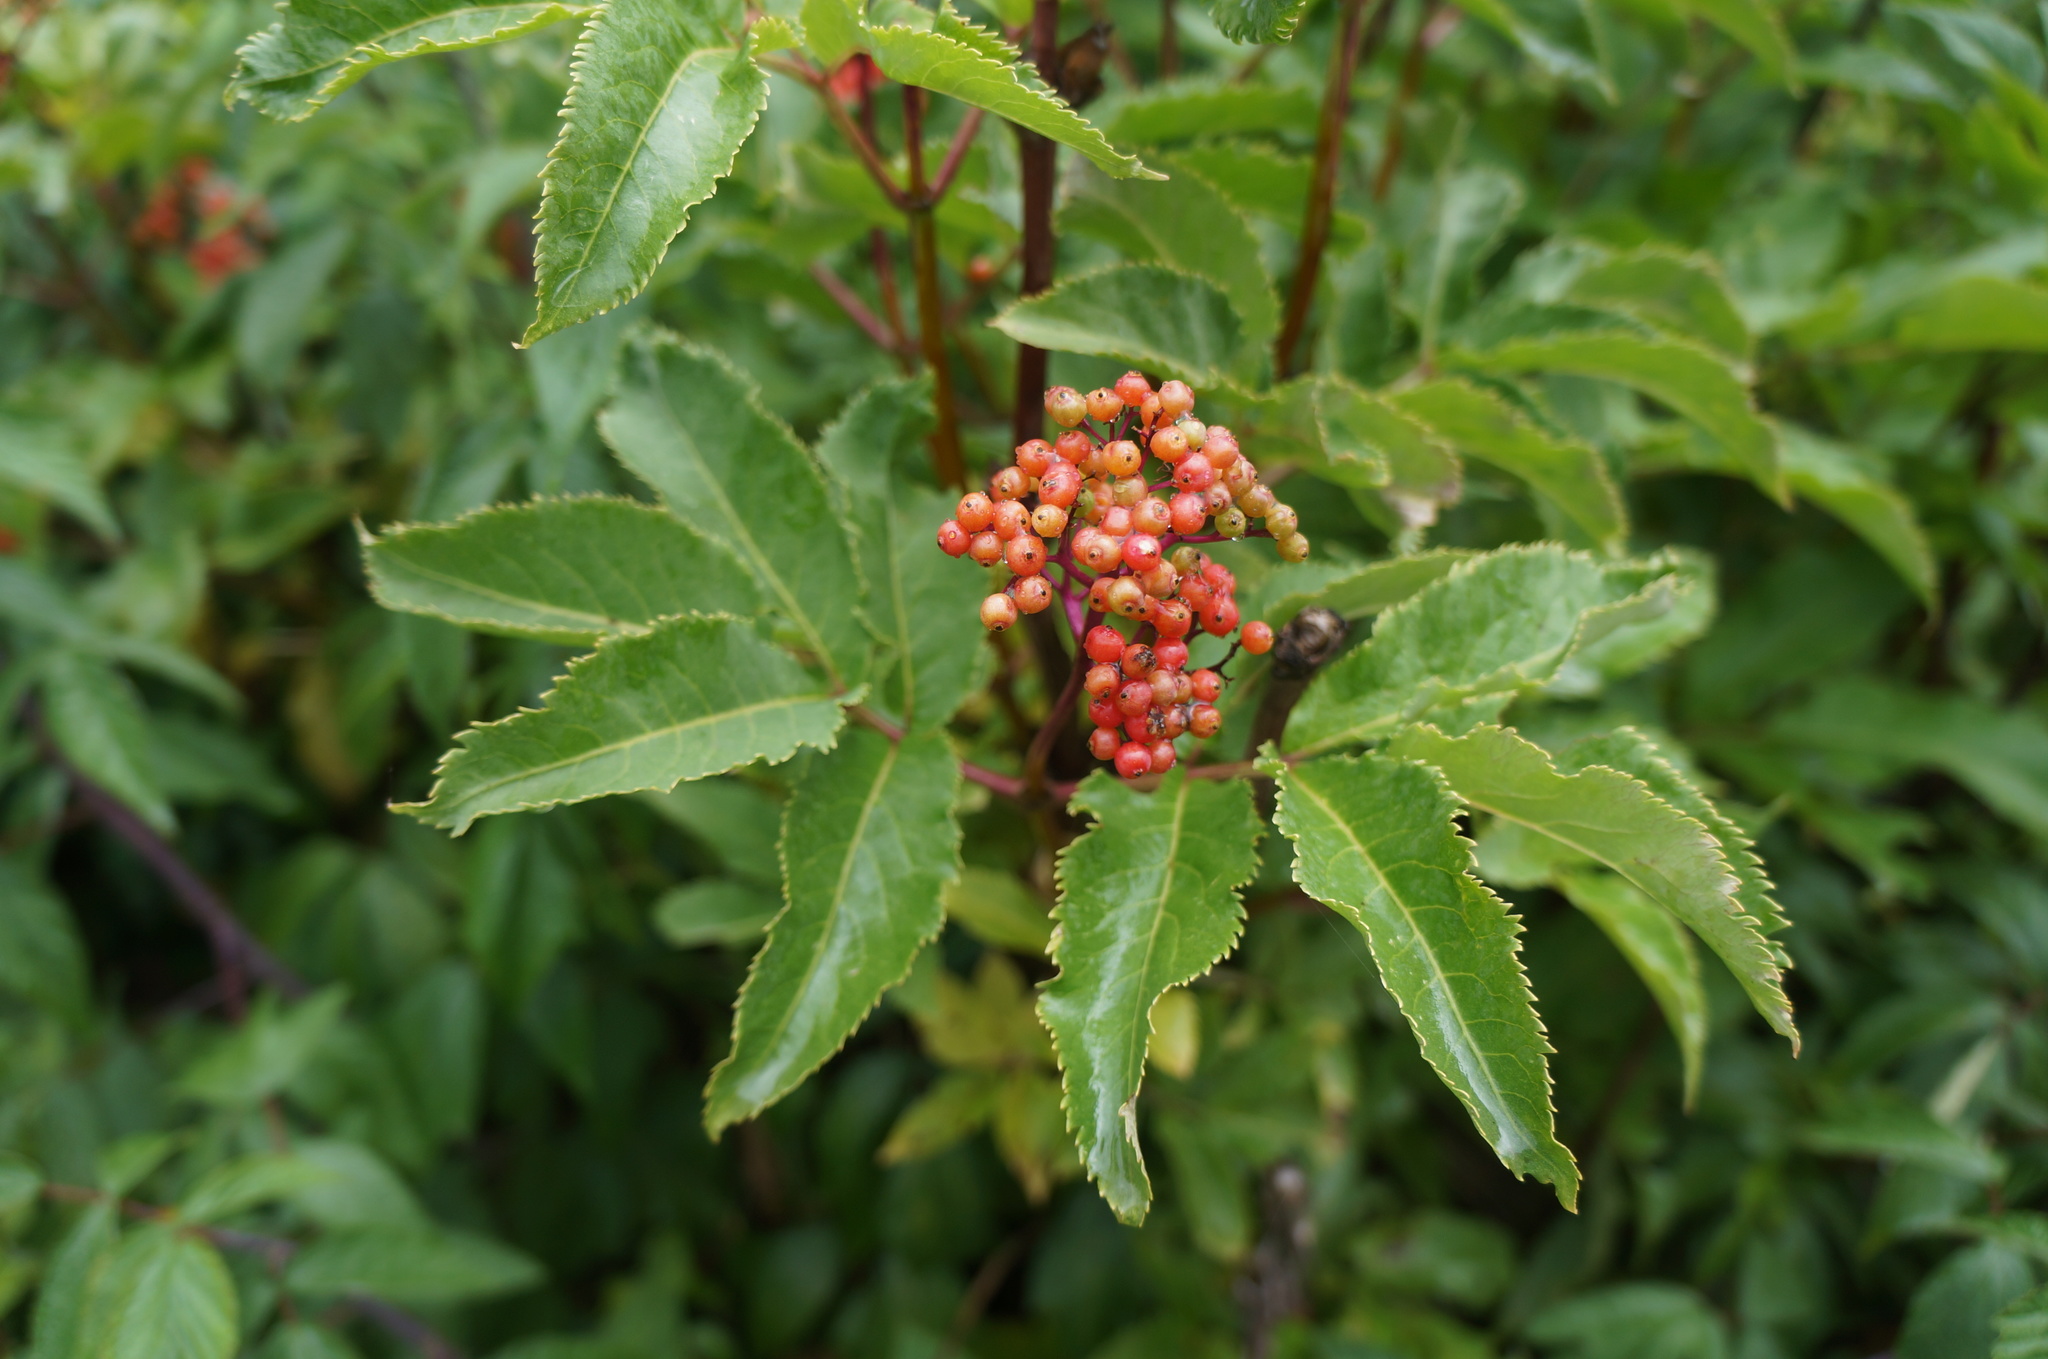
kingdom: Plantae
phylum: Tracheophyta
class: Magnoliopsida
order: Dipsacales
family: Viburnaceae
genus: Sambucus
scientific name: Sambucus racemosa
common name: Red-berried elder
